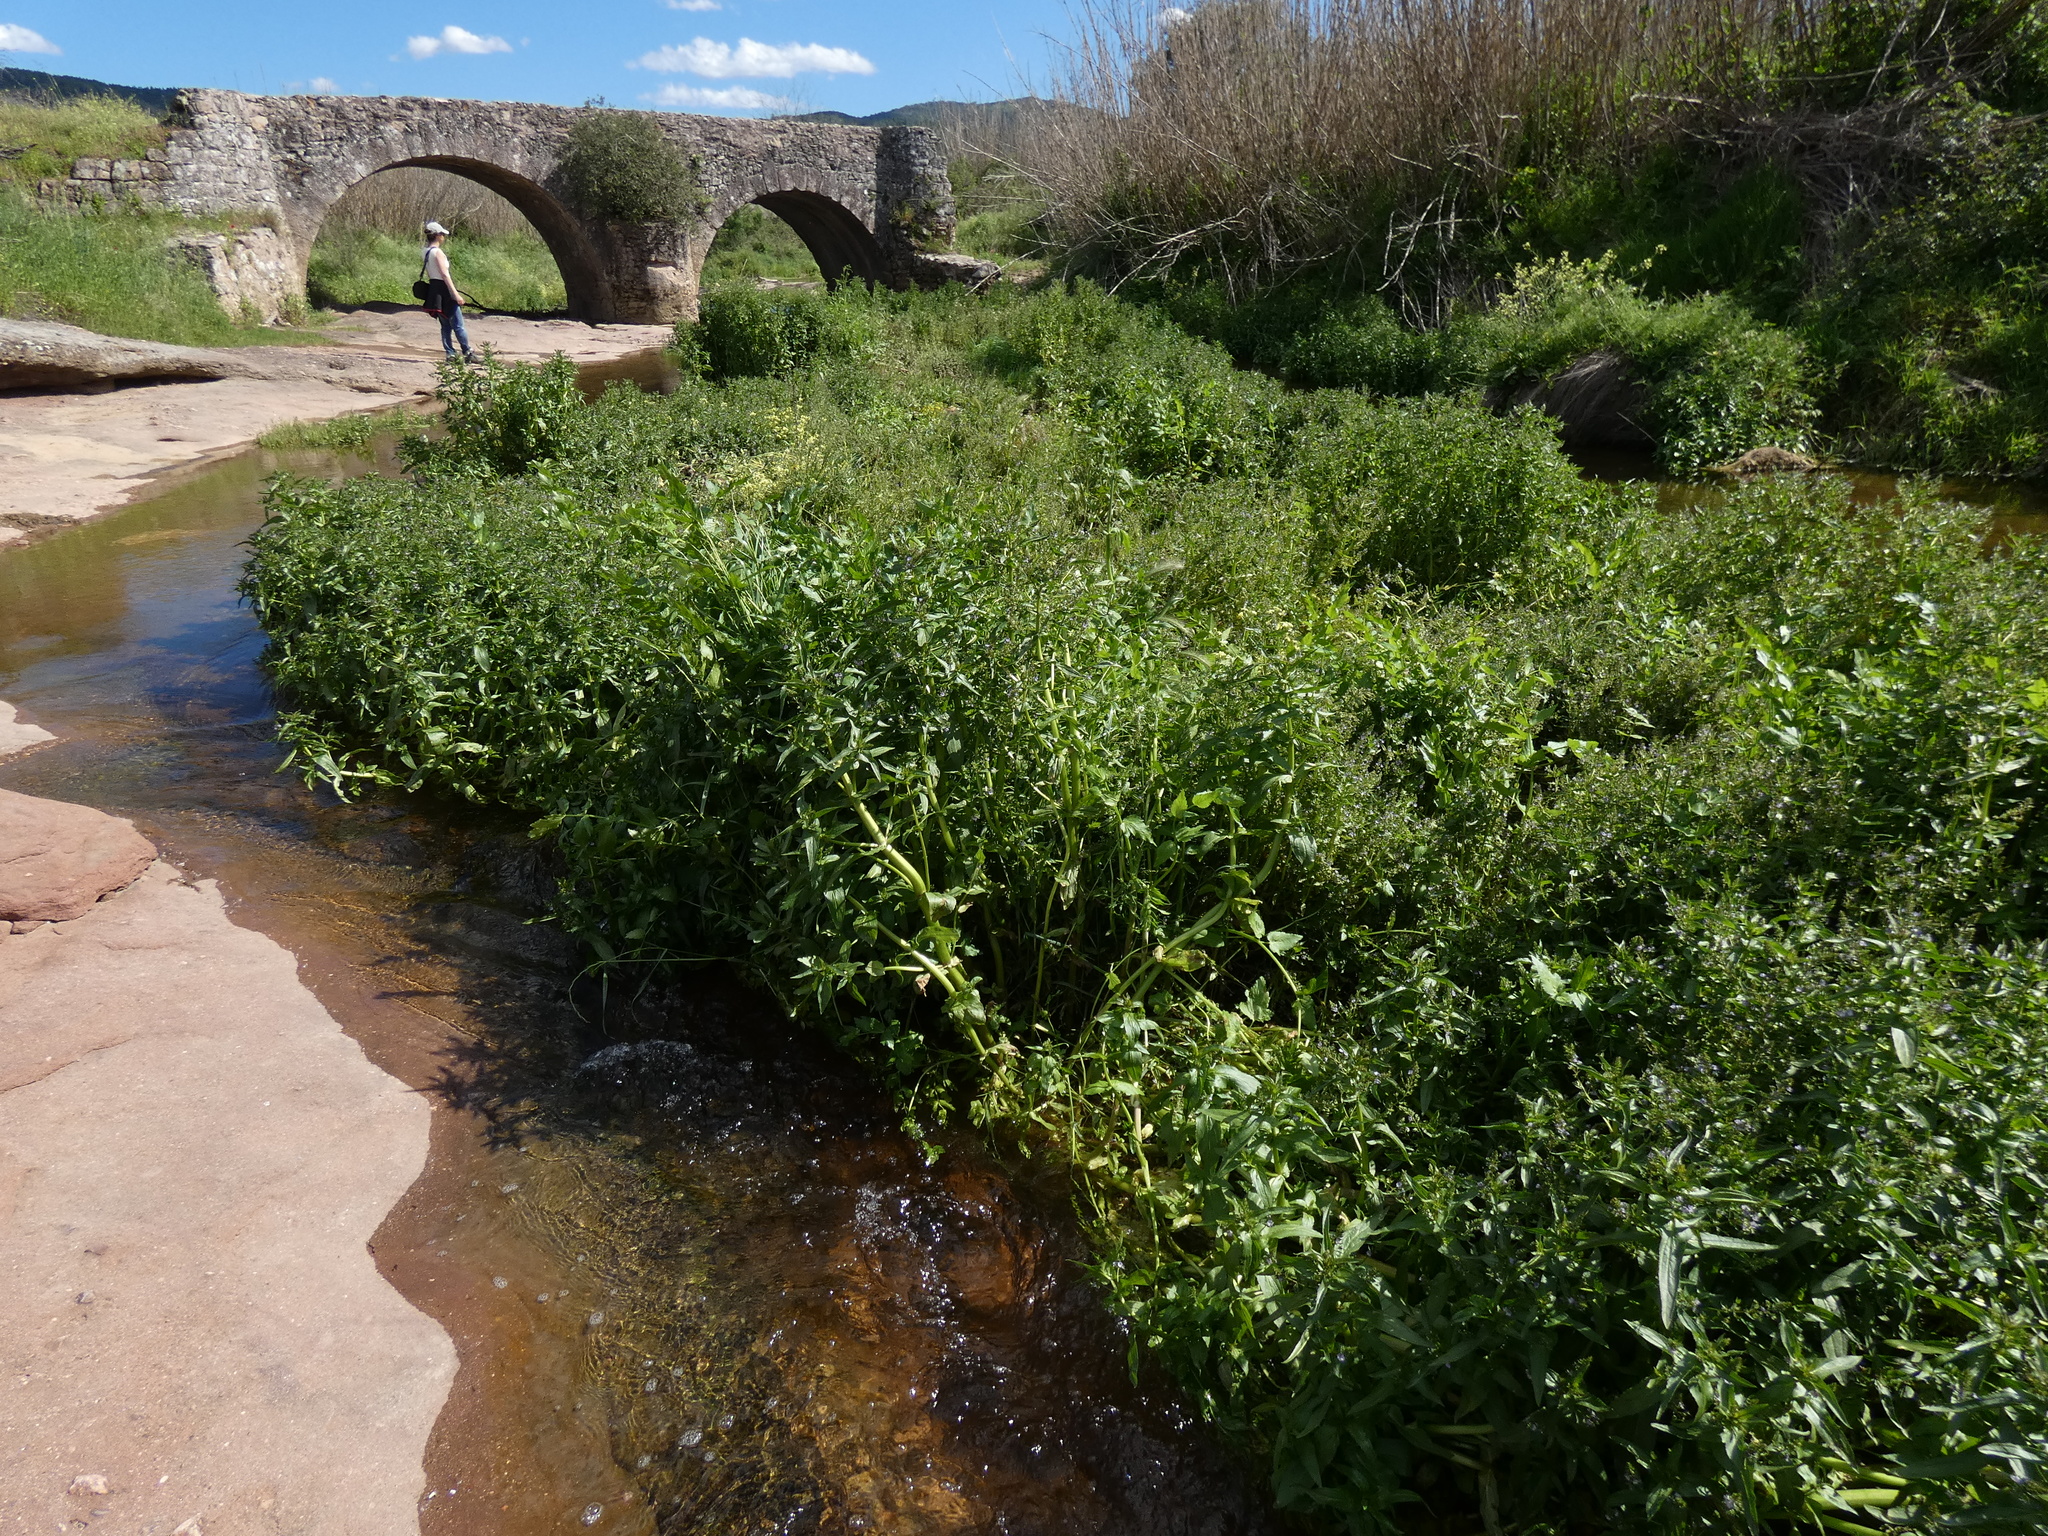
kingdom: Plantae
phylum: Tracheophyta
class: Magnoliopsida
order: Lamiales
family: Plantaginaceae
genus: Veronica
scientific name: Veronica anagallis-aquatica
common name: Water speedwell
